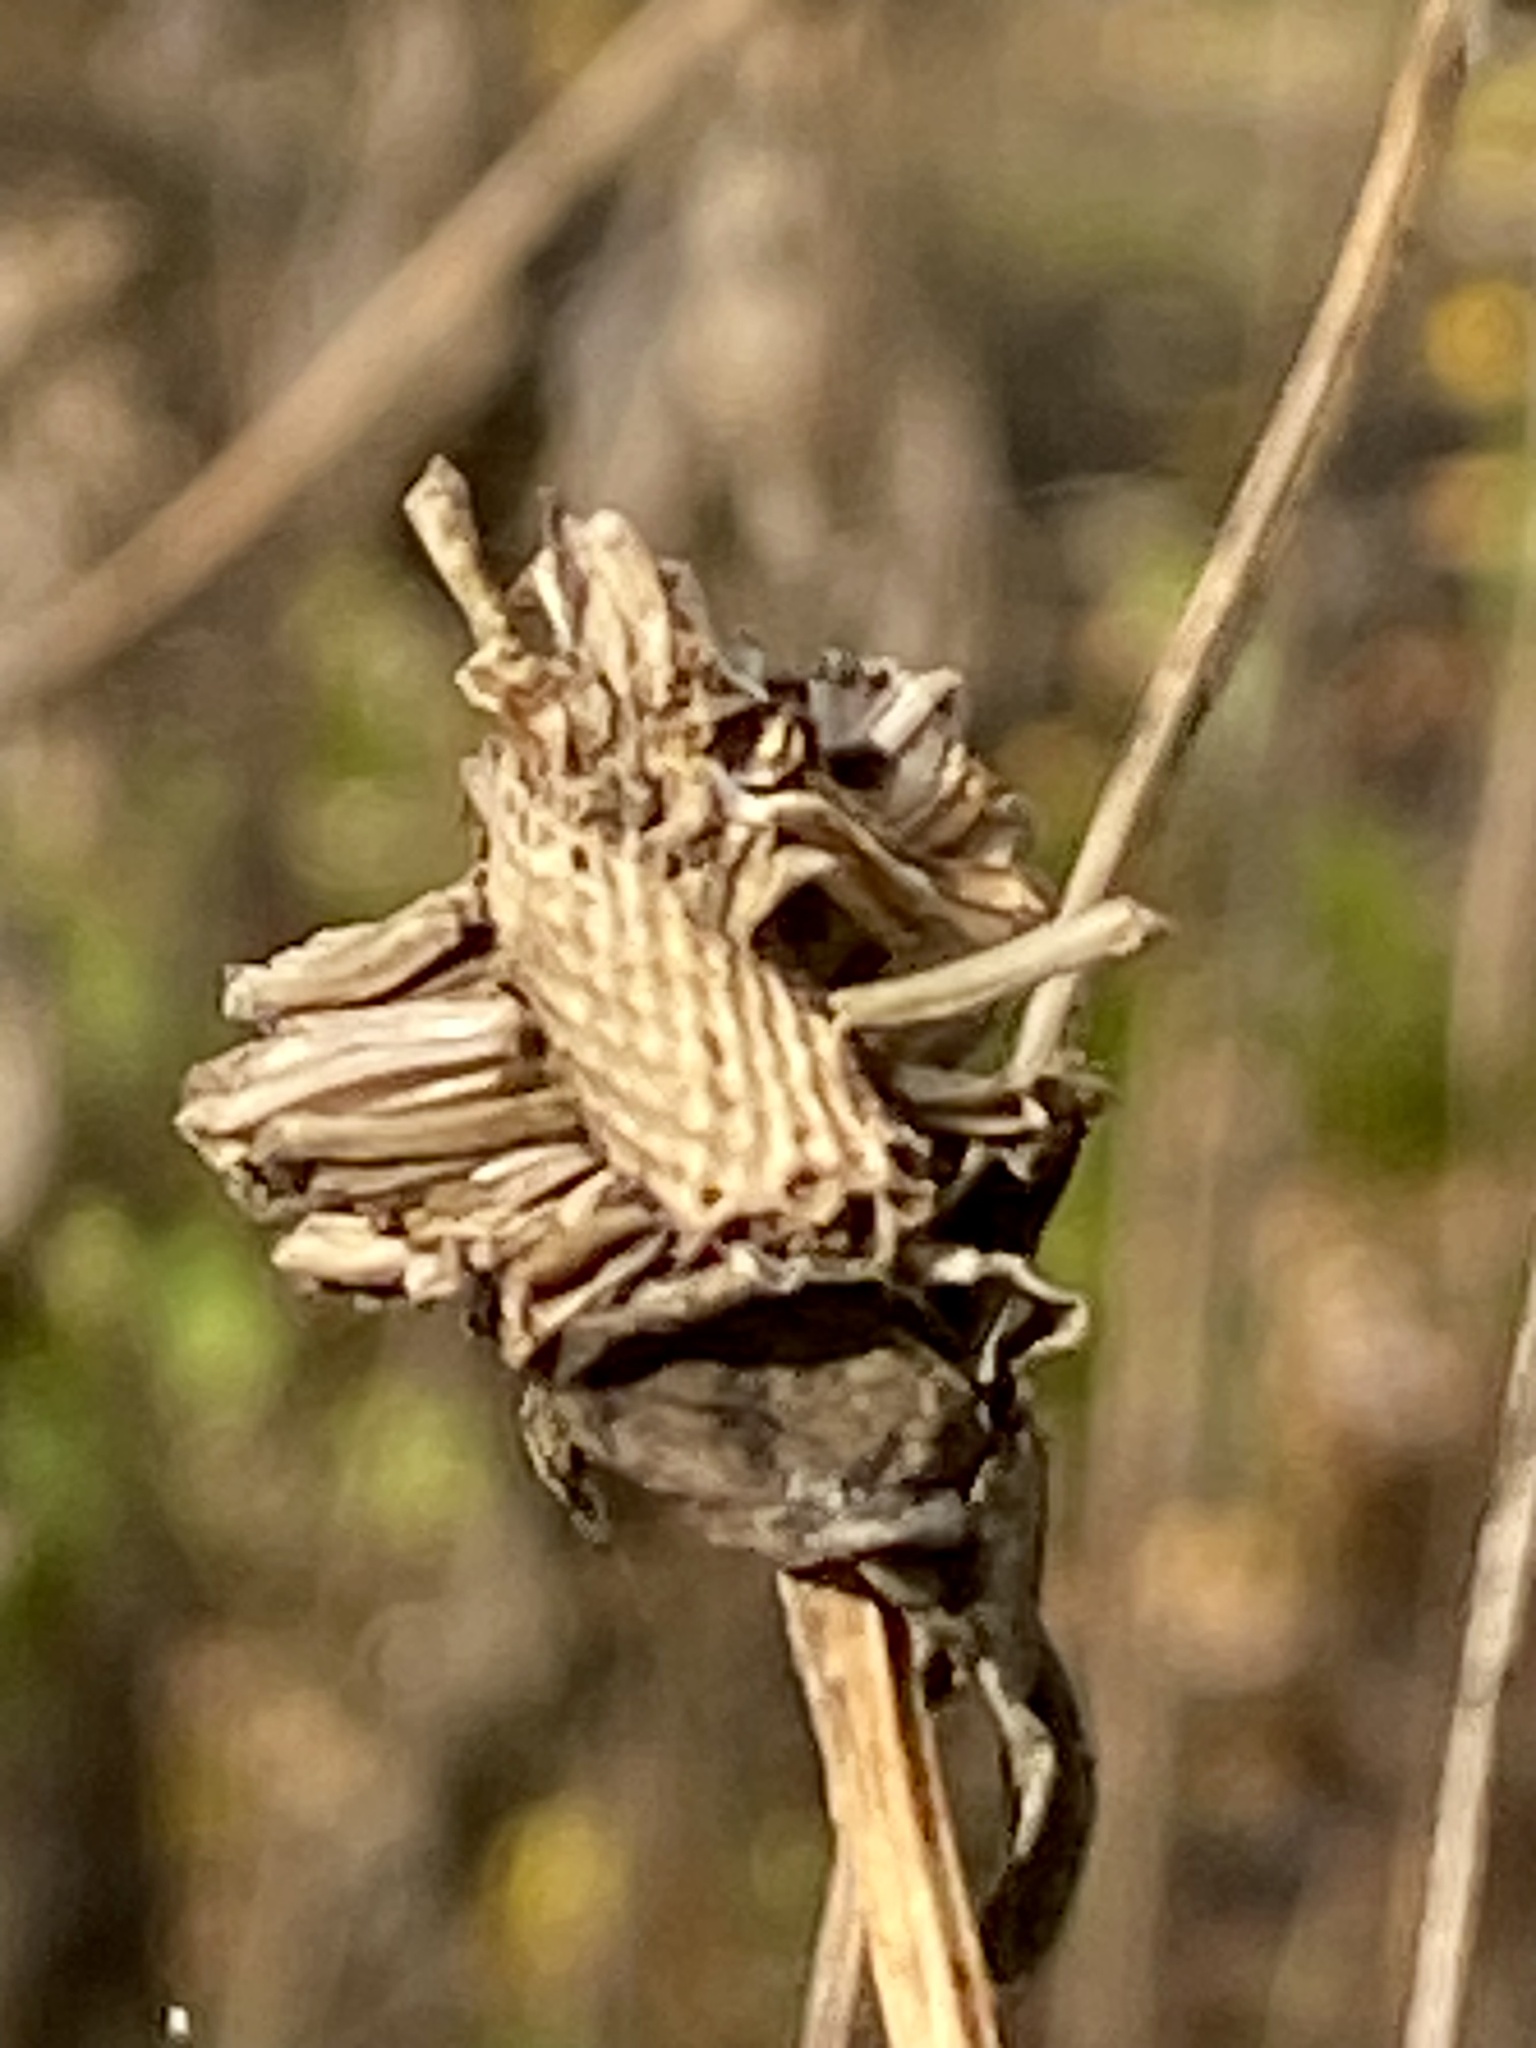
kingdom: Plantae
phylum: Tracheophyta
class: Magnoliopsida
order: Asterales
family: Asteraceae
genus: Rudbeckia
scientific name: Rudbeckia laciniata
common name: Coneflower
